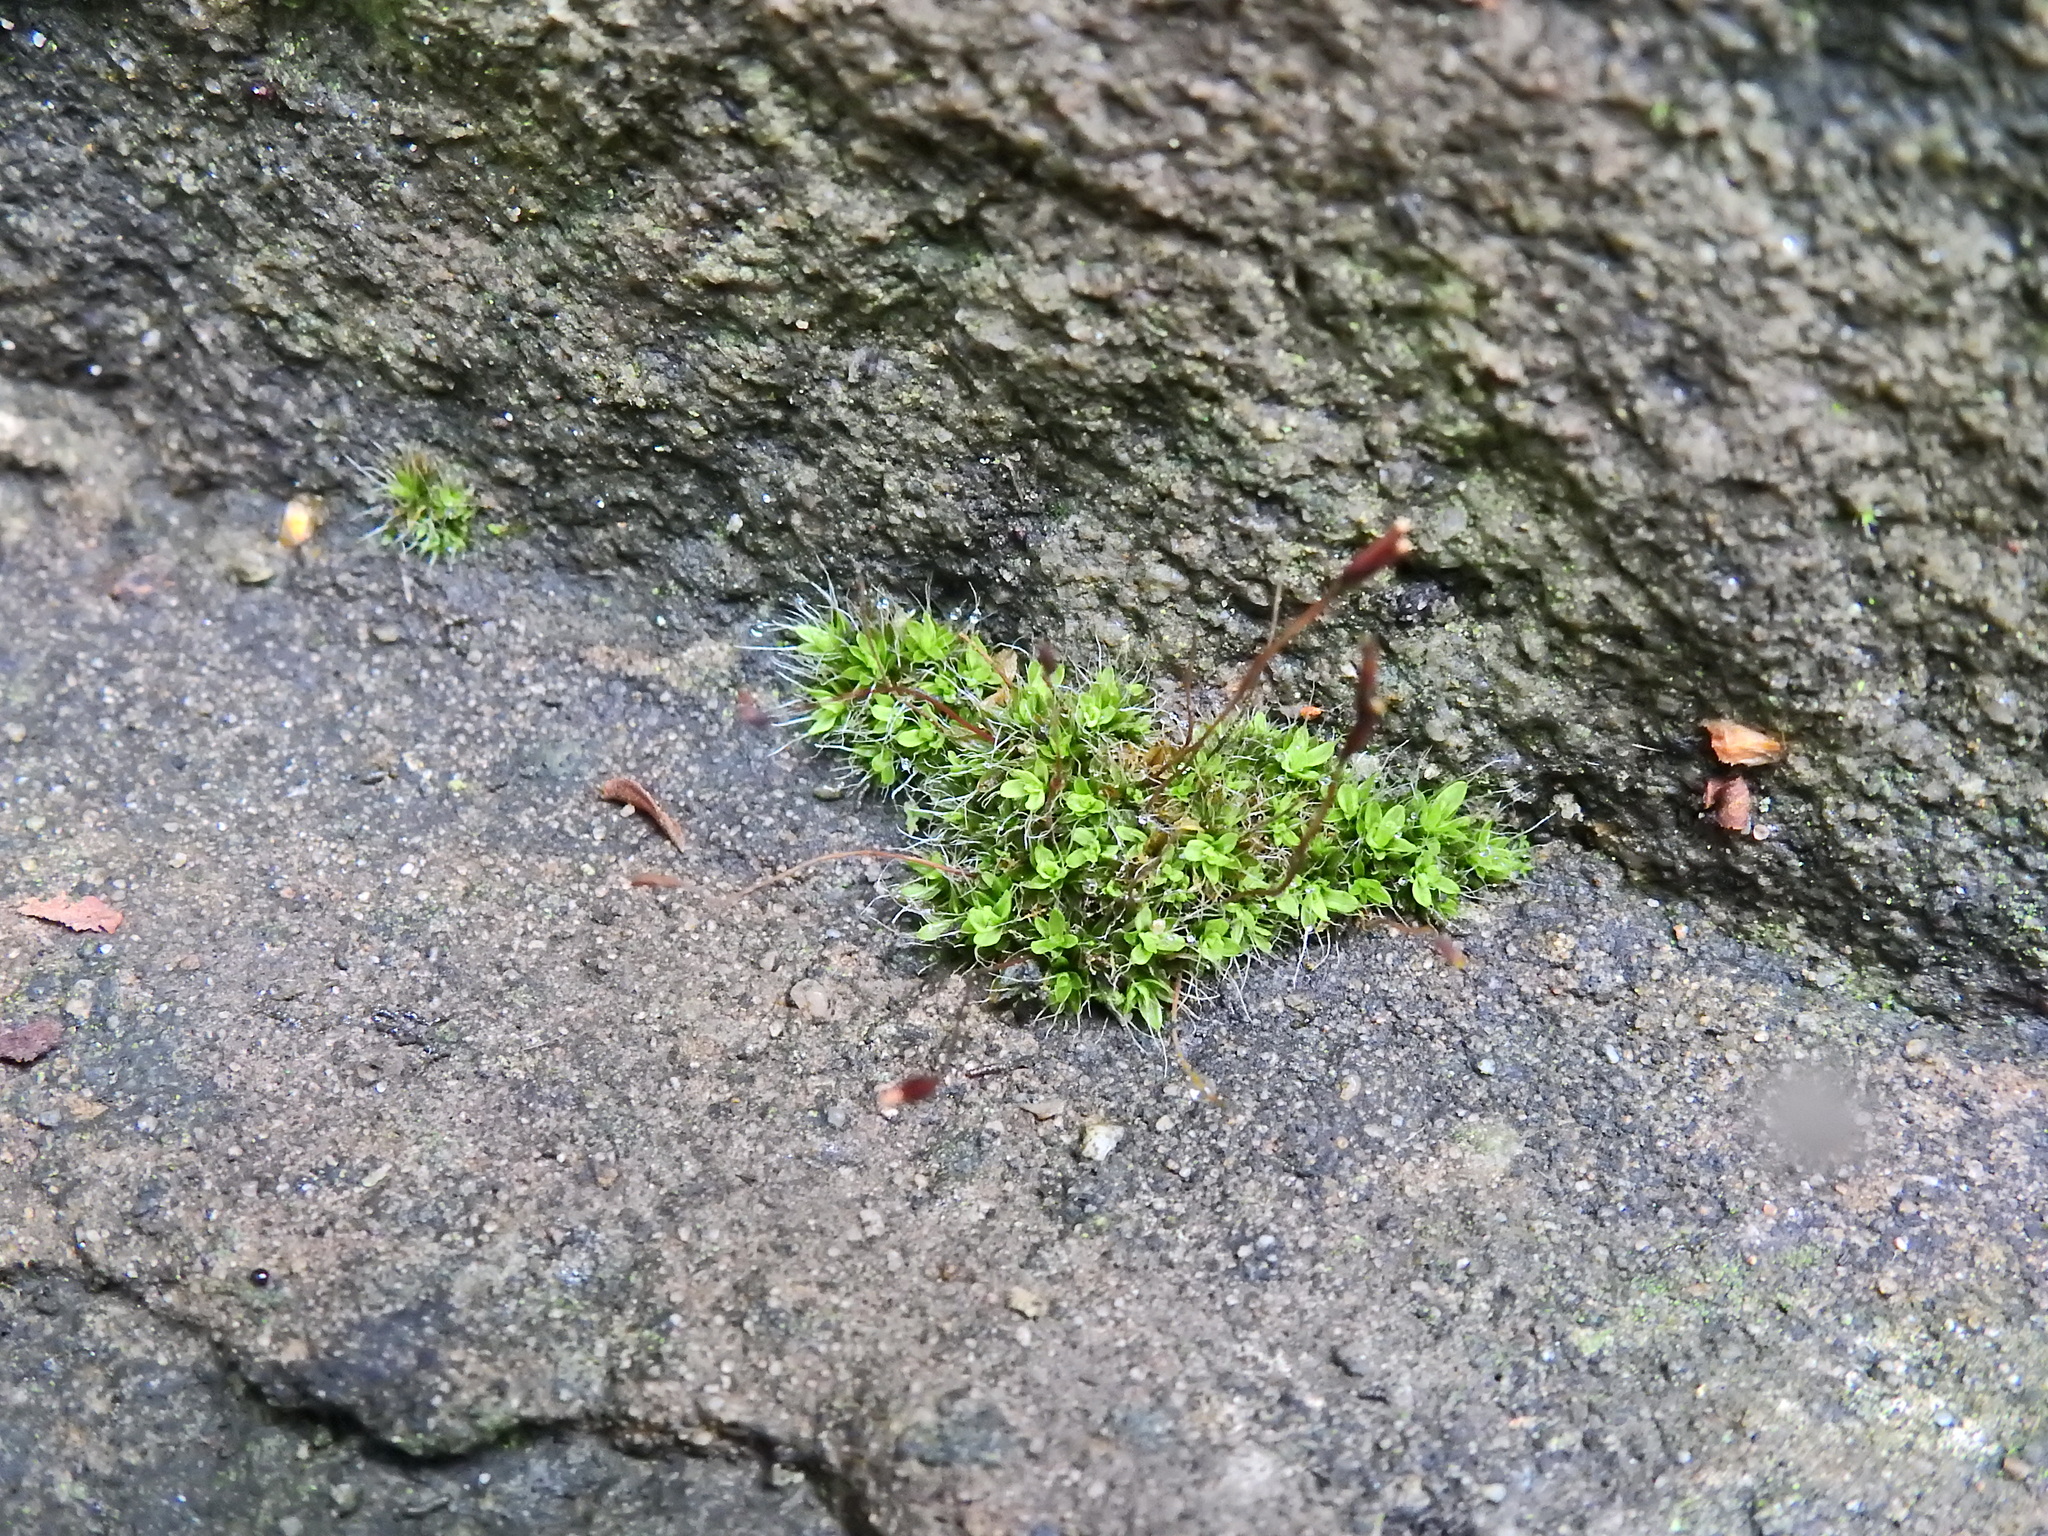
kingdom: Plantae
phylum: Bryophyta
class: Bryopsida
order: Pottiales
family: Pottiaceae
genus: Tortula
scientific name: Tortula muralis
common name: Wall screw-moss
